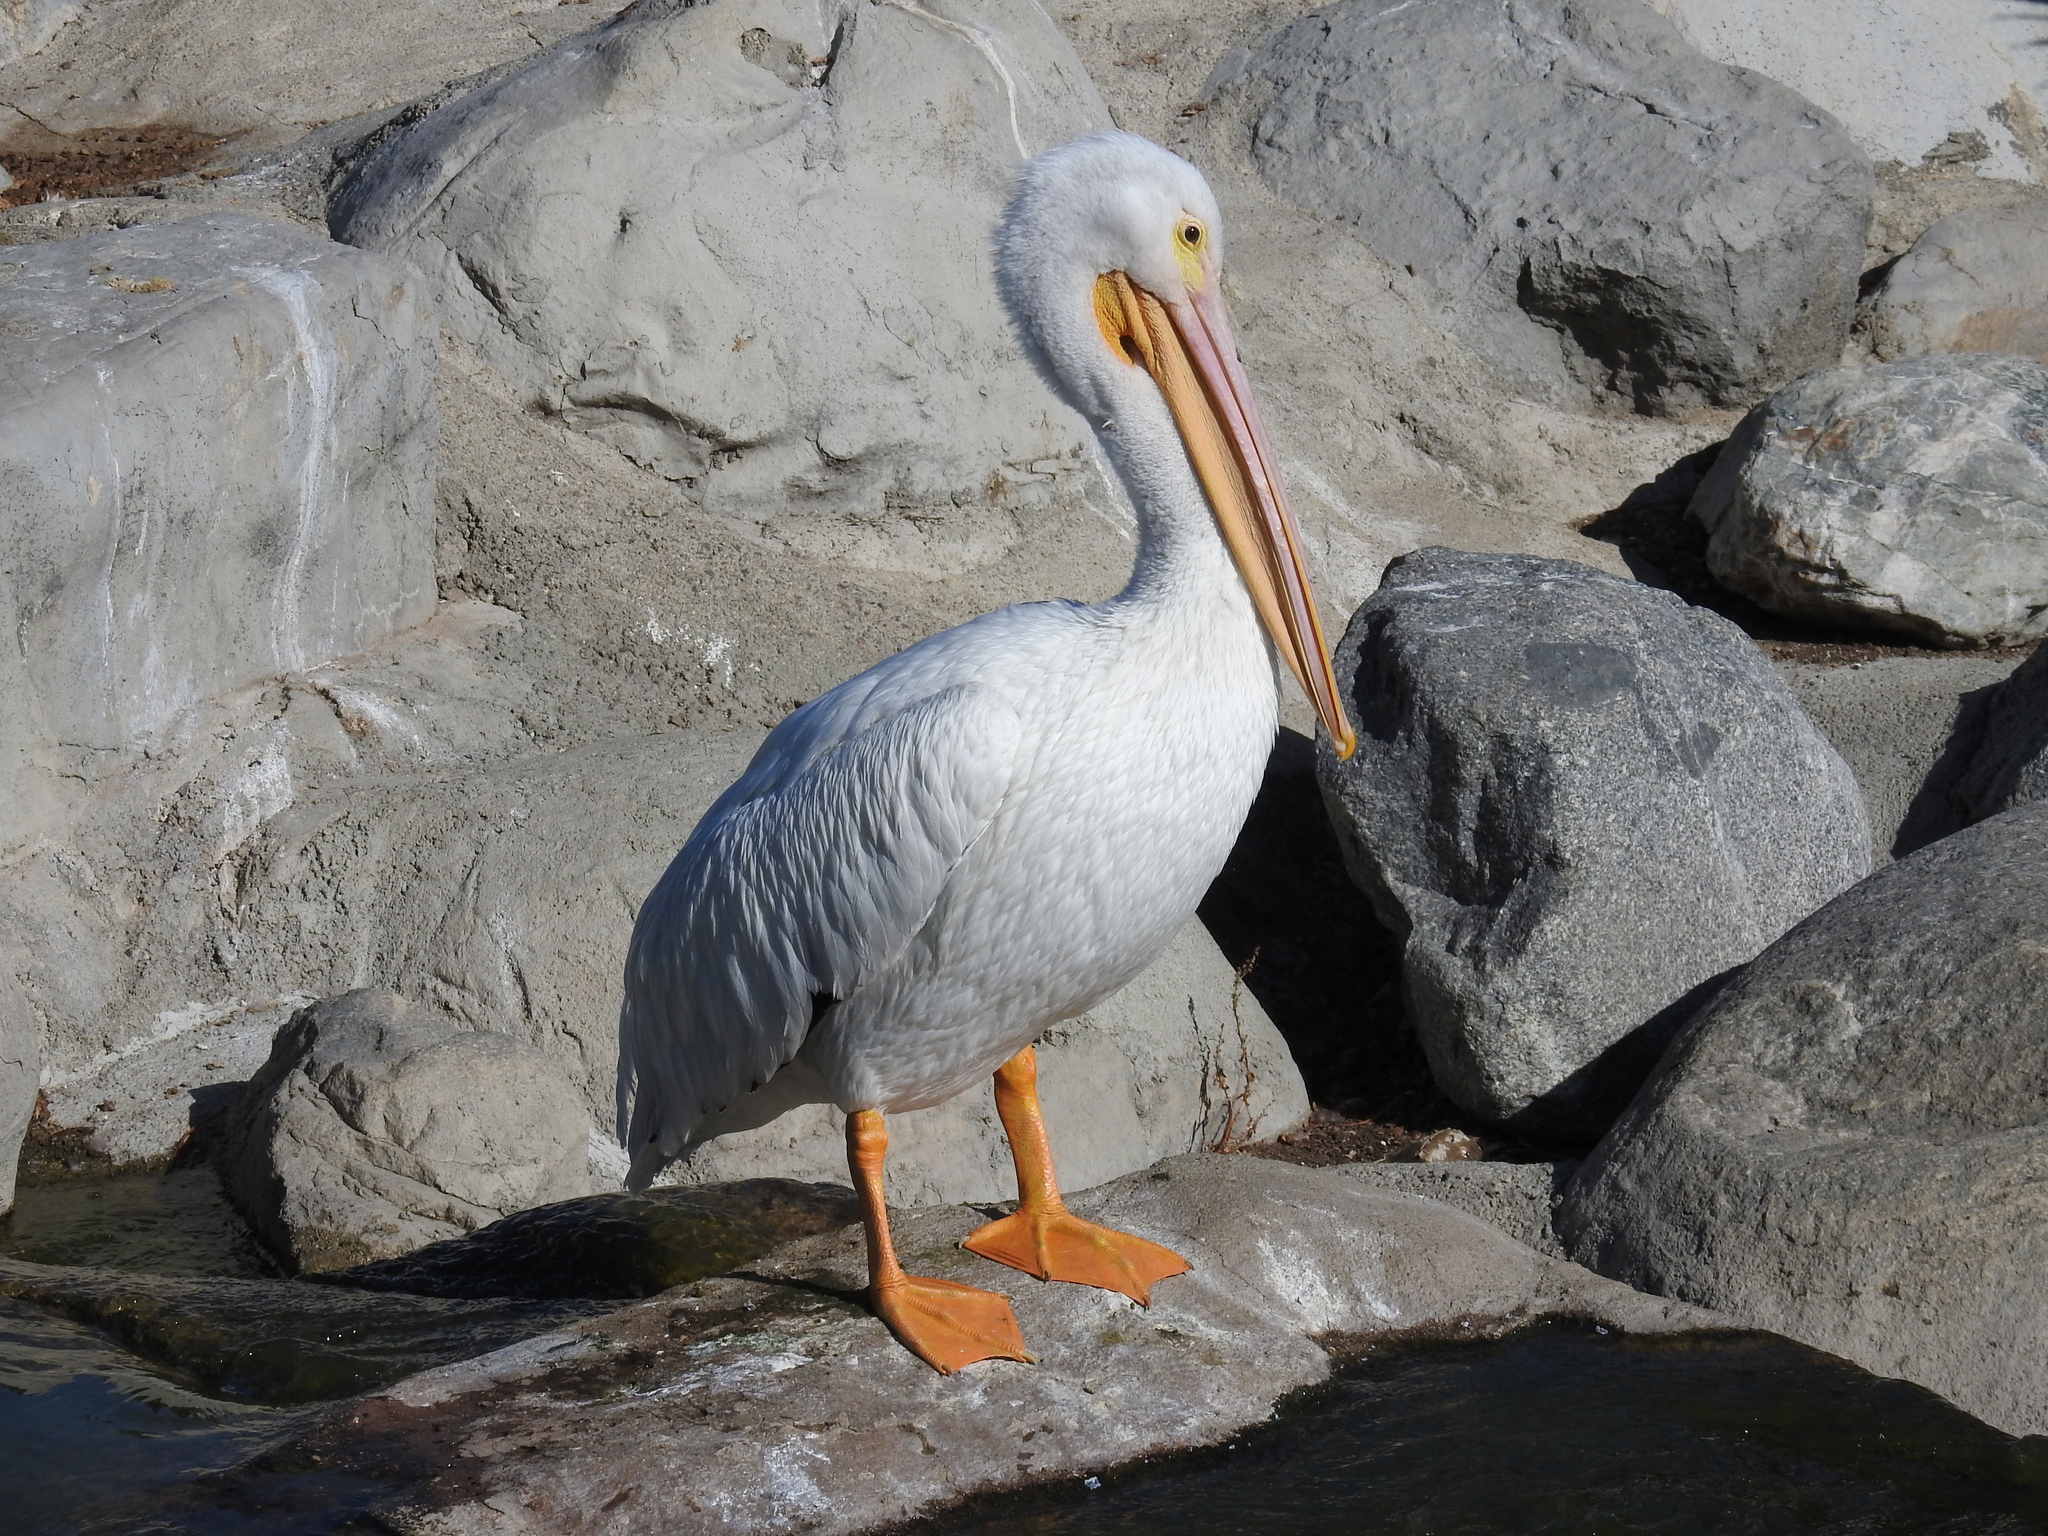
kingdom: Animalia
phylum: Chordata
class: Aves
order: Pelecaniformes
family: Pelecanidae
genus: Pelecanus
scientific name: Pelecanus erythrorhynchos
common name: American white pelican
